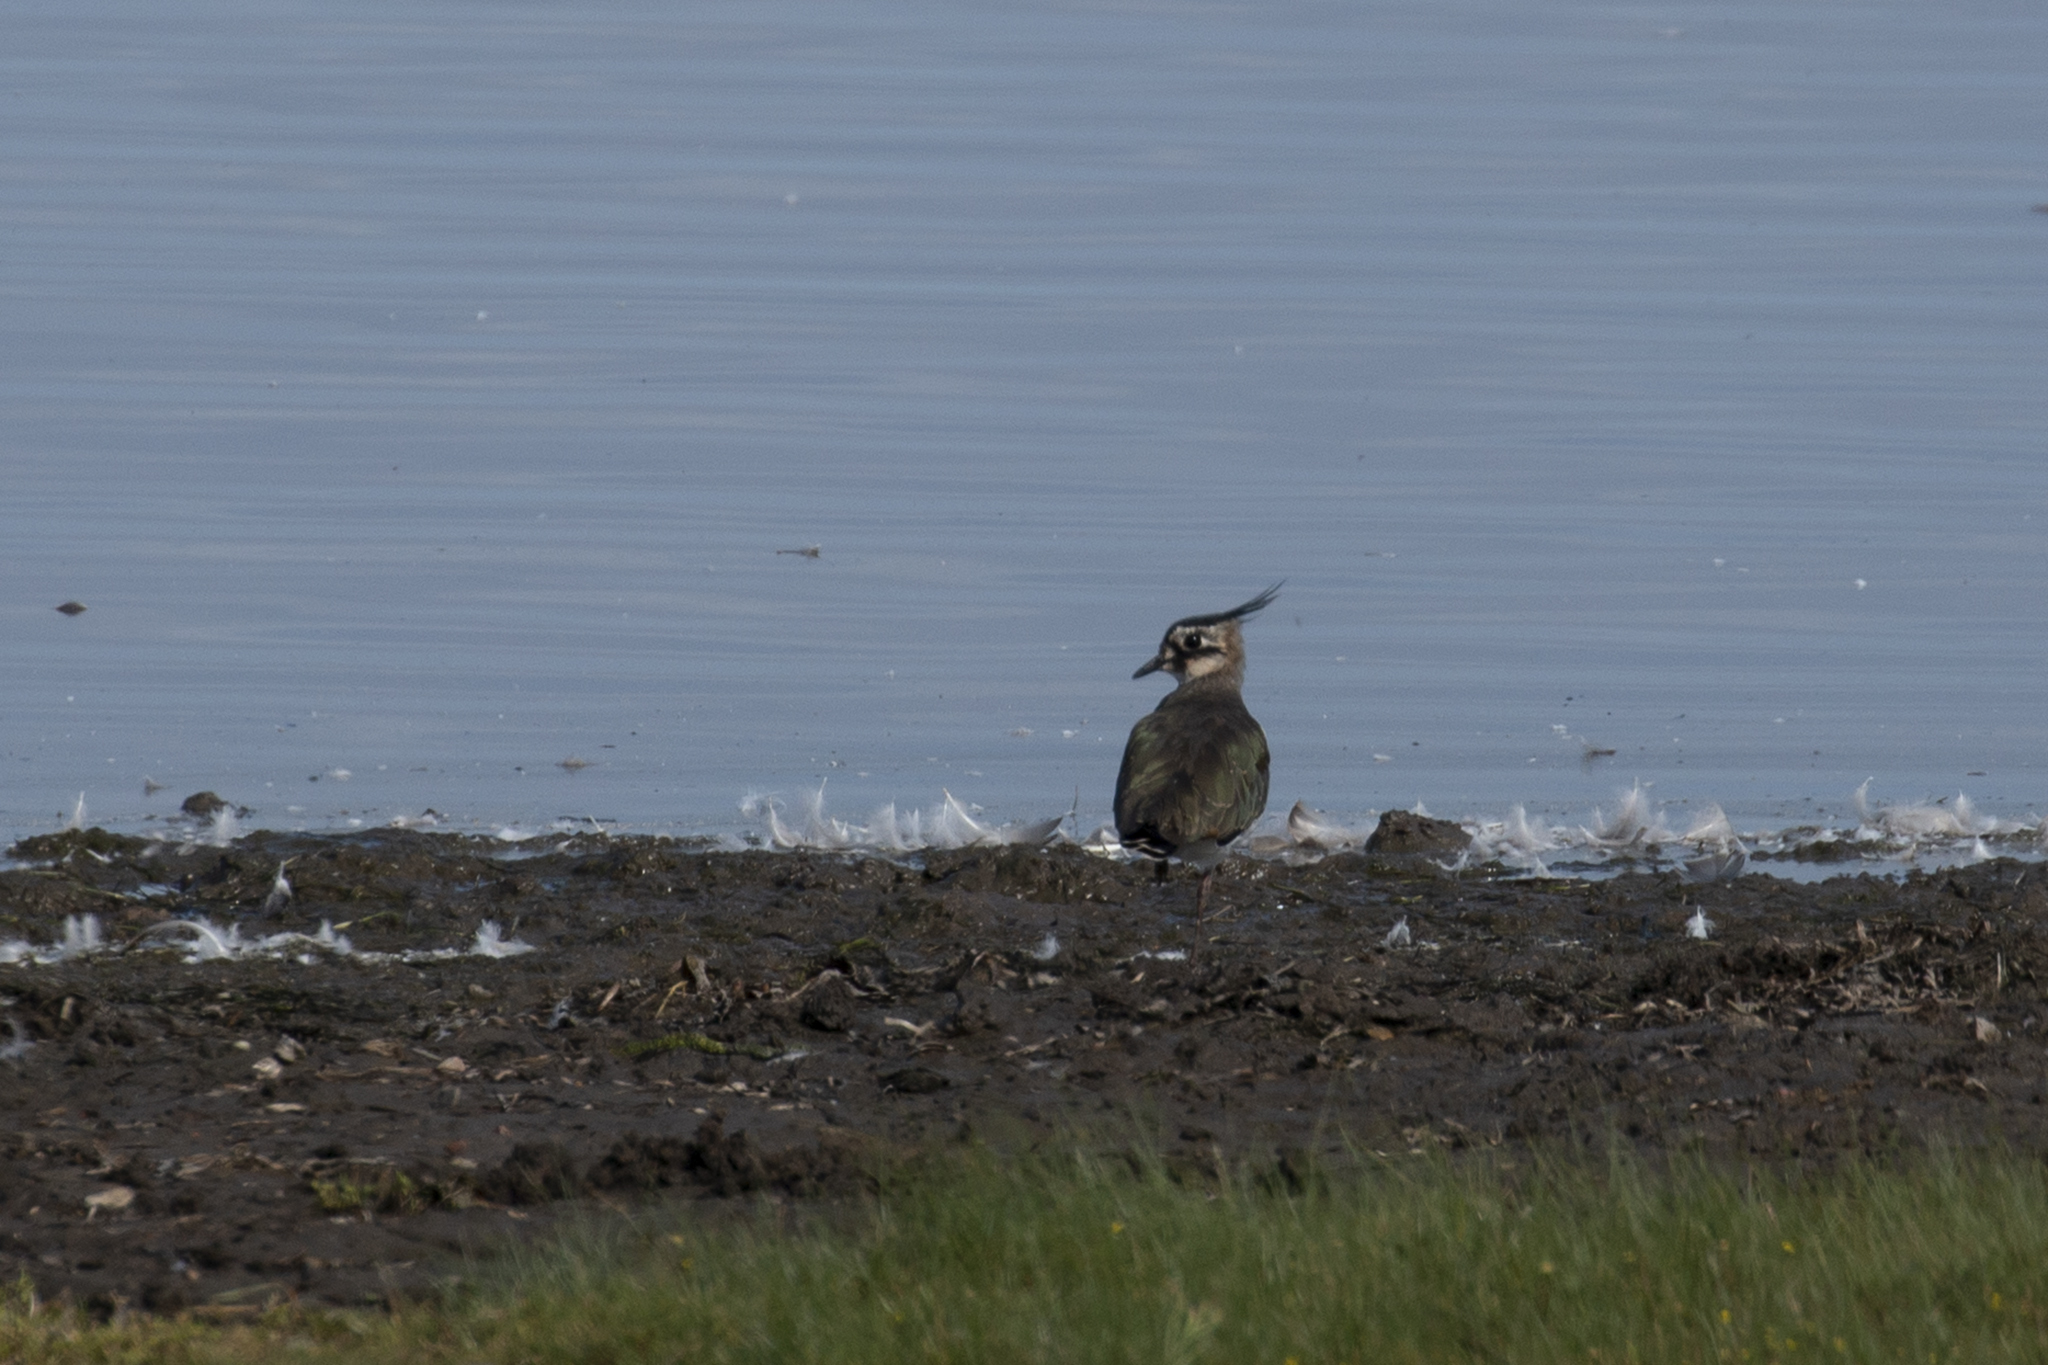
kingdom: Animalia
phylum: Chordata
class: Aves
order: Charadriiformes
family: Charadriidae
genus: Vanellus
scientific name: Vanellus vanellus
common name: Northern lapwing
